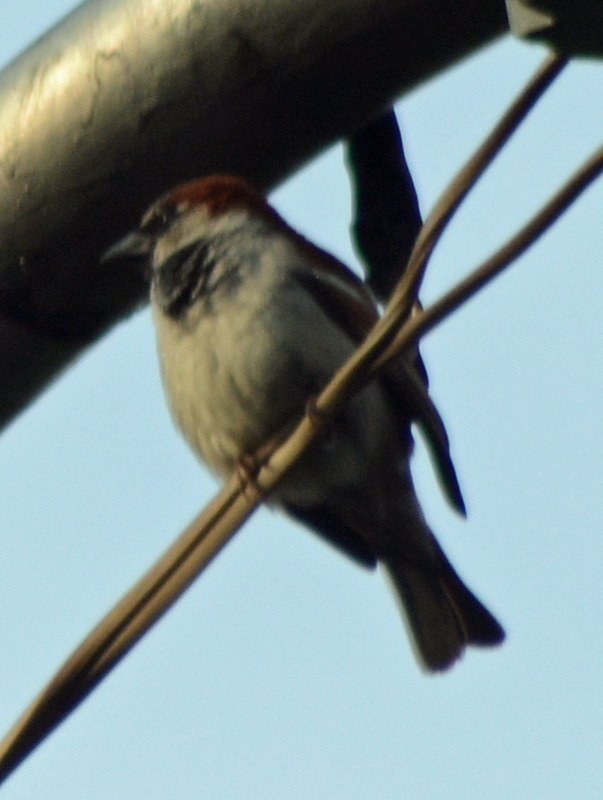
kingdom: Animalia
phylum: Chordata
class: Aves
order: Passeriformes
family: Passeridae
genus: Passer
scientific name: Passer domesticus
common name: House sparrow
